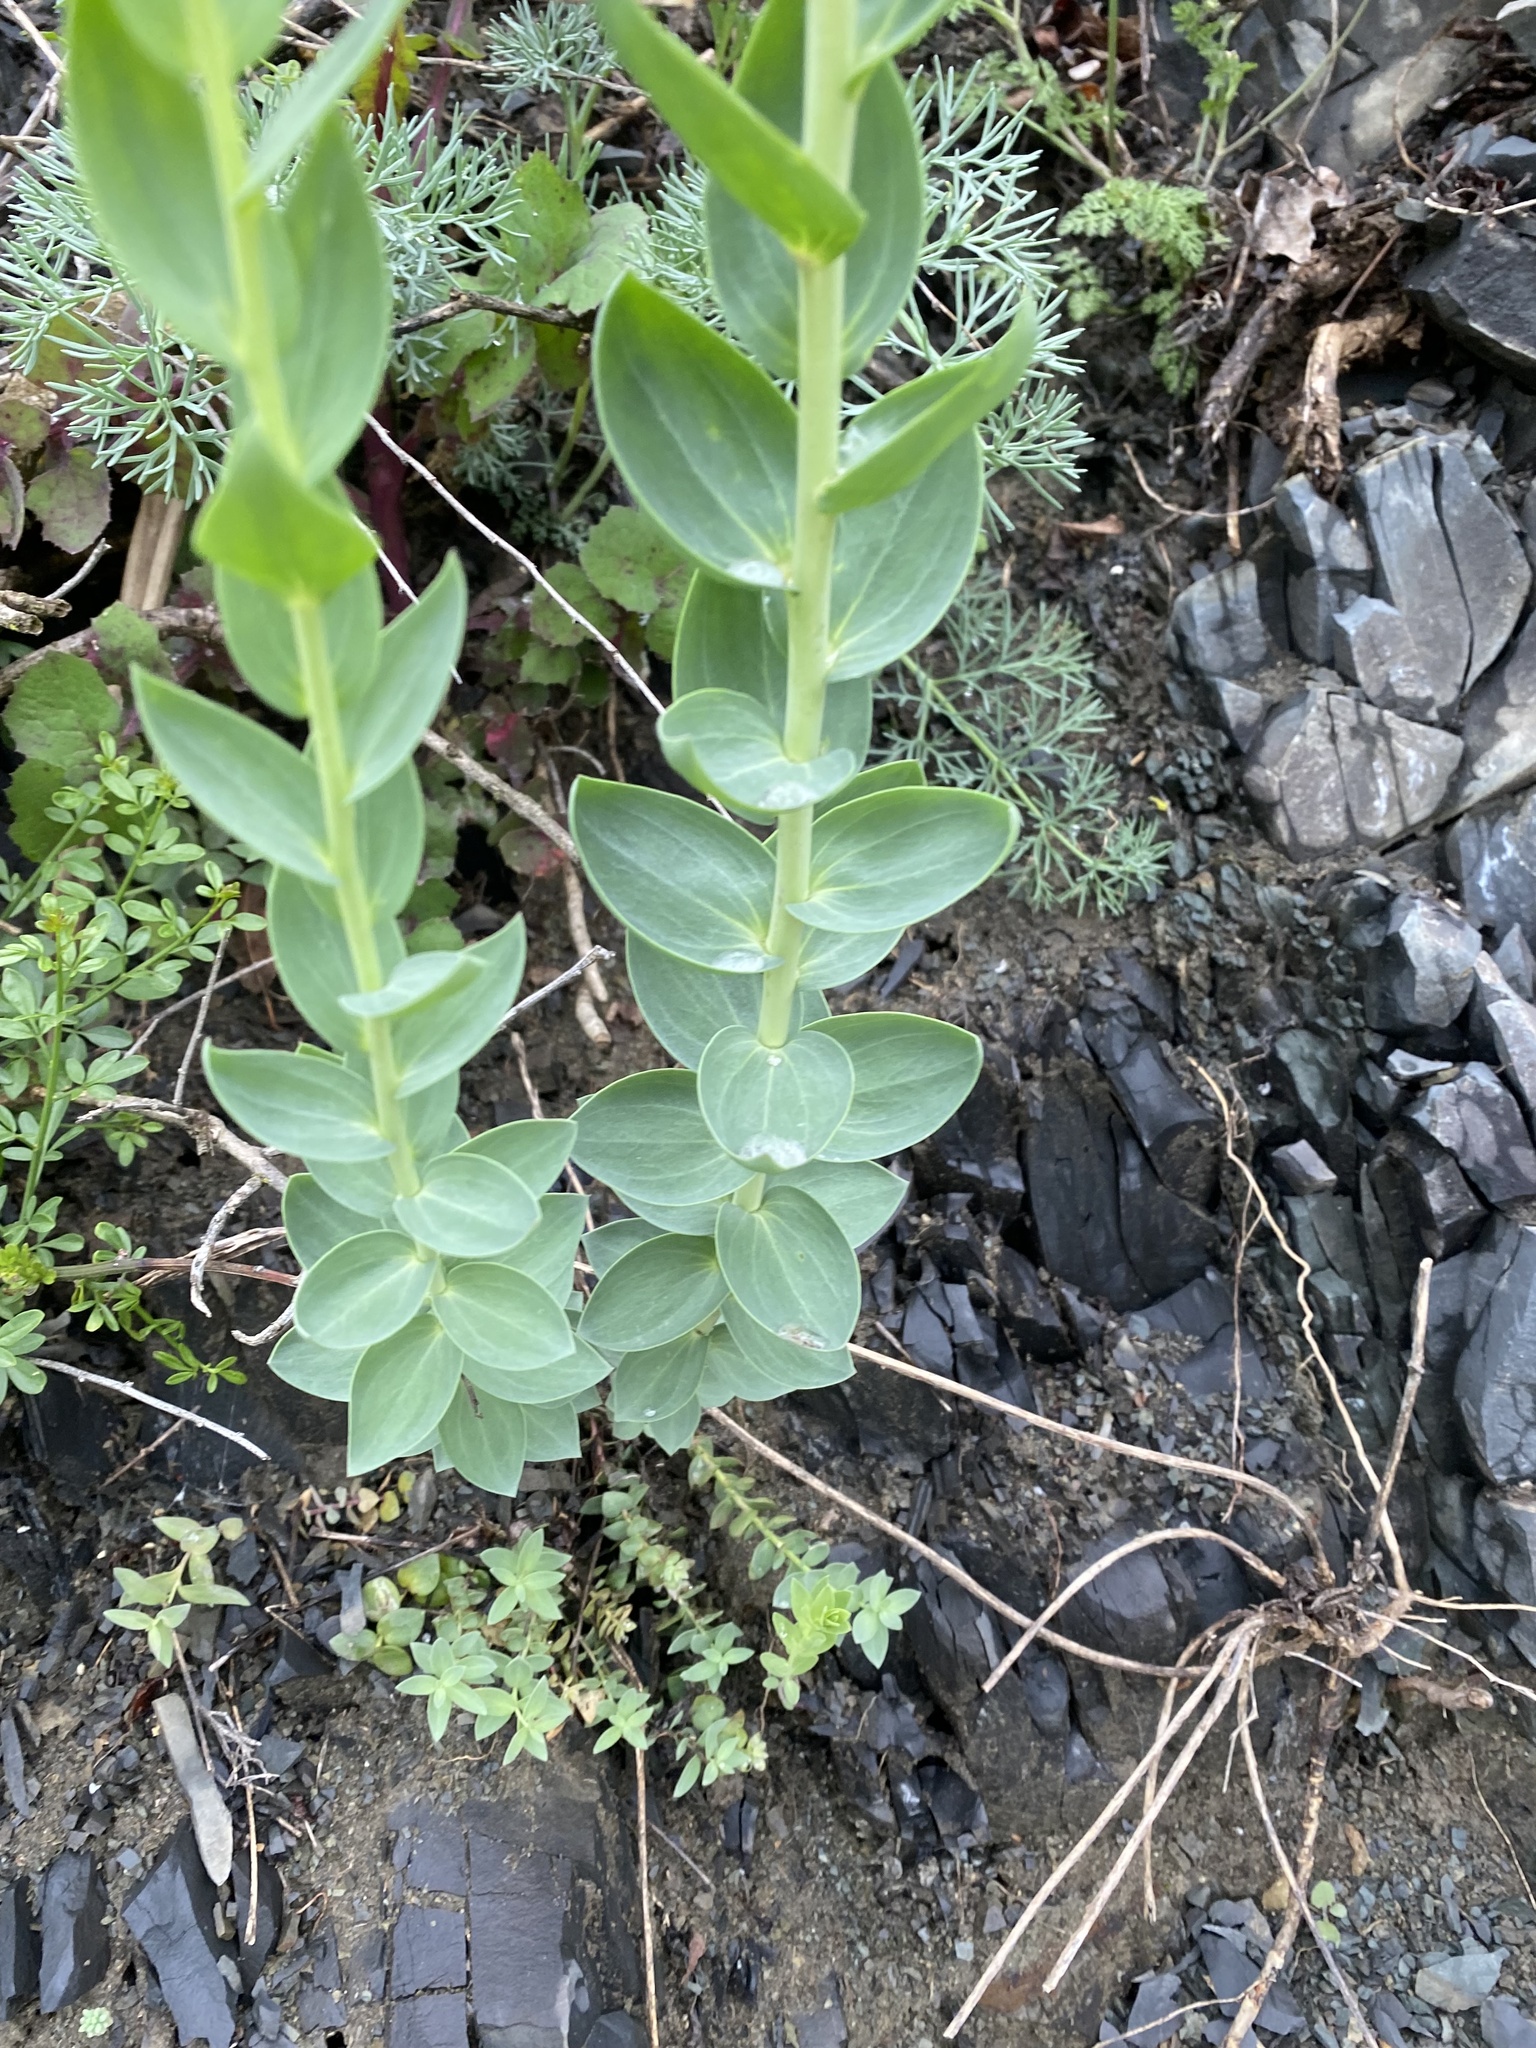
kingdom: Plantae
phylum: Tracheophyta
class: Magnoliopsida
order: Lamiales
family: Plantaginaceae
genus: Linaria
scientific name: Linaria genistifolia
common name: Broomleaf toadflax
